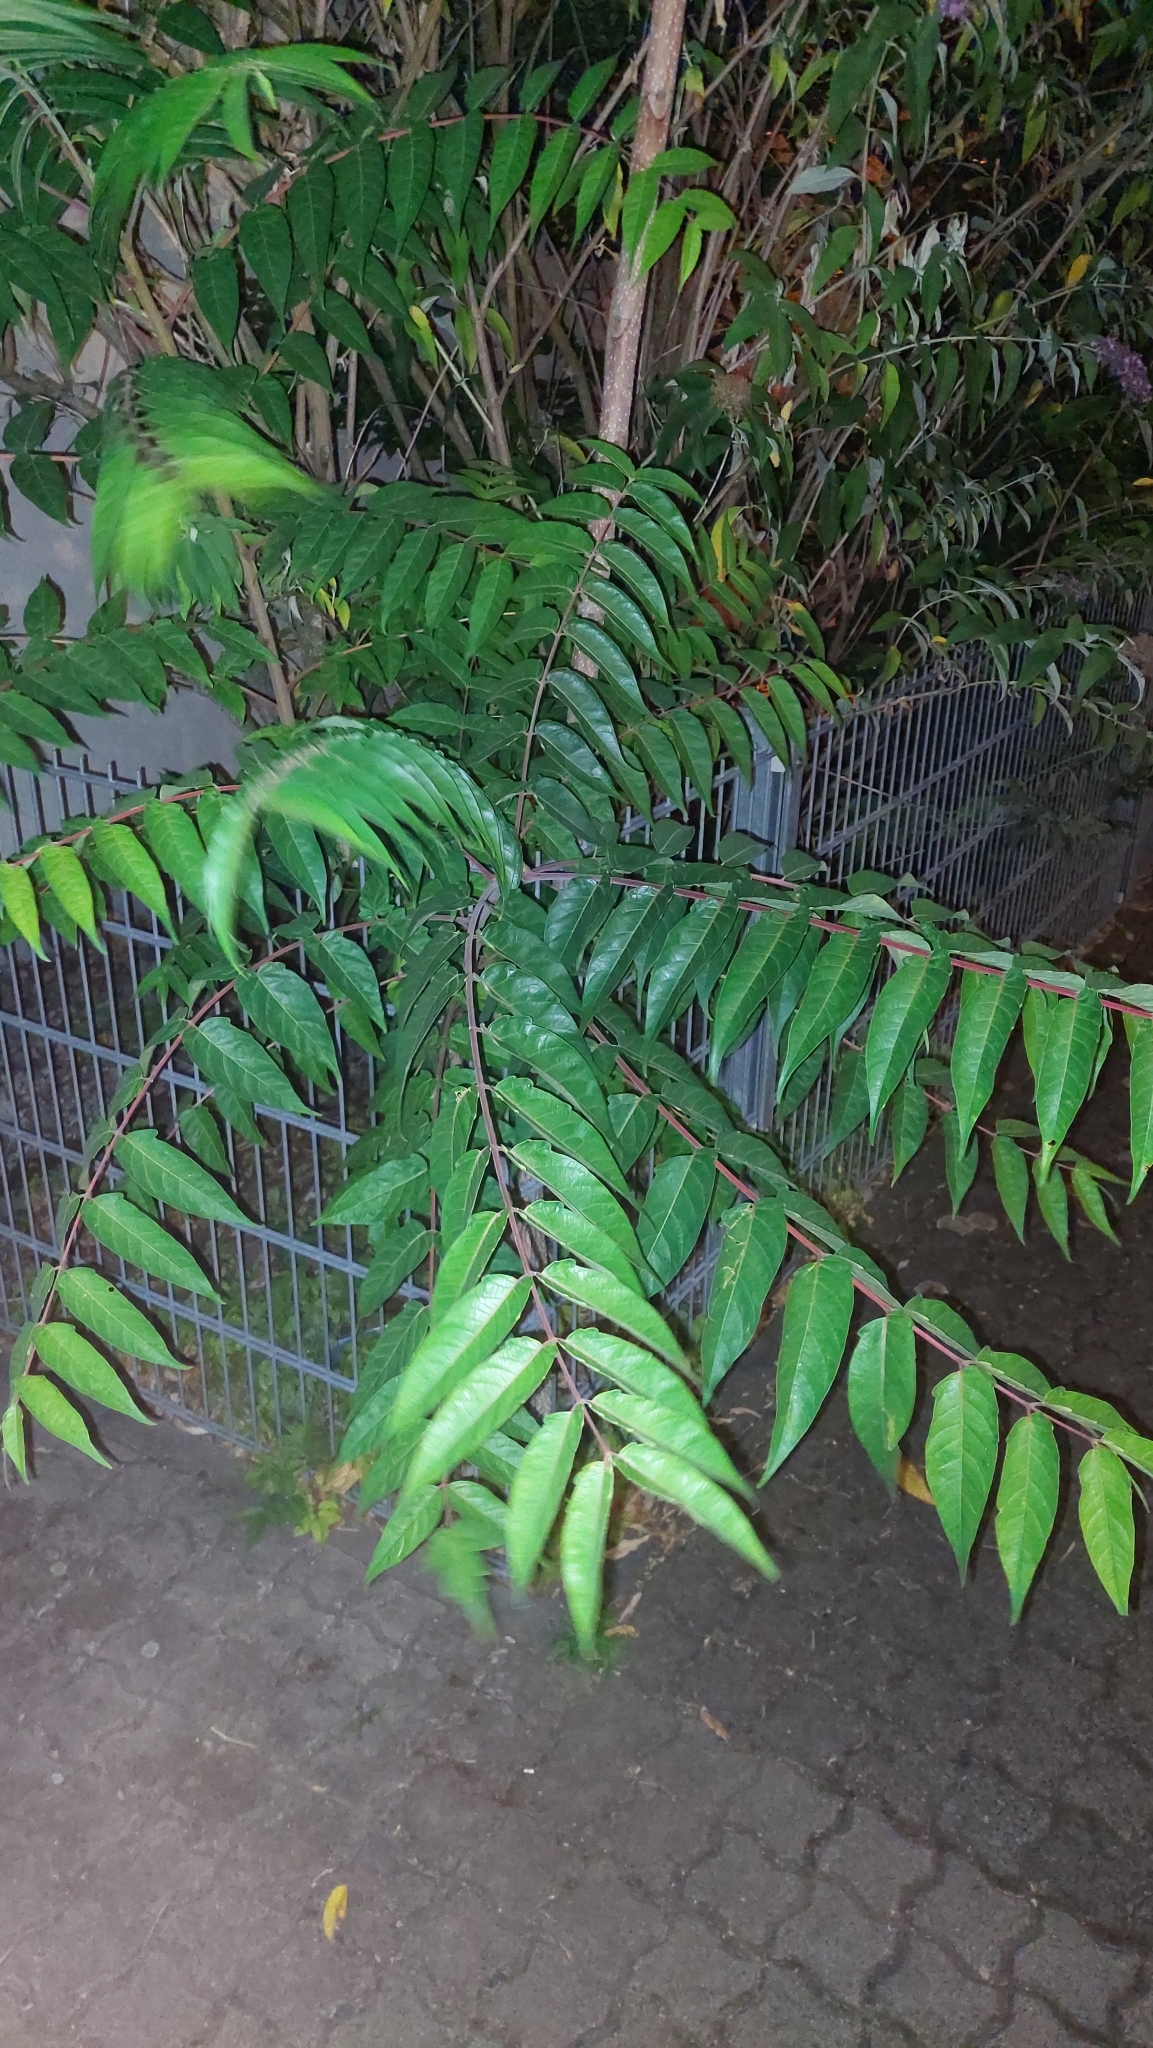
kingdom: Plantae
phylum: Tracheophyta
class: Magnoliopsida
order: Sapindales
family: Simaroubaceae
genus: Ailanthus
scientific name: Ailanthus altissima
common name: Tree-of-heaven
